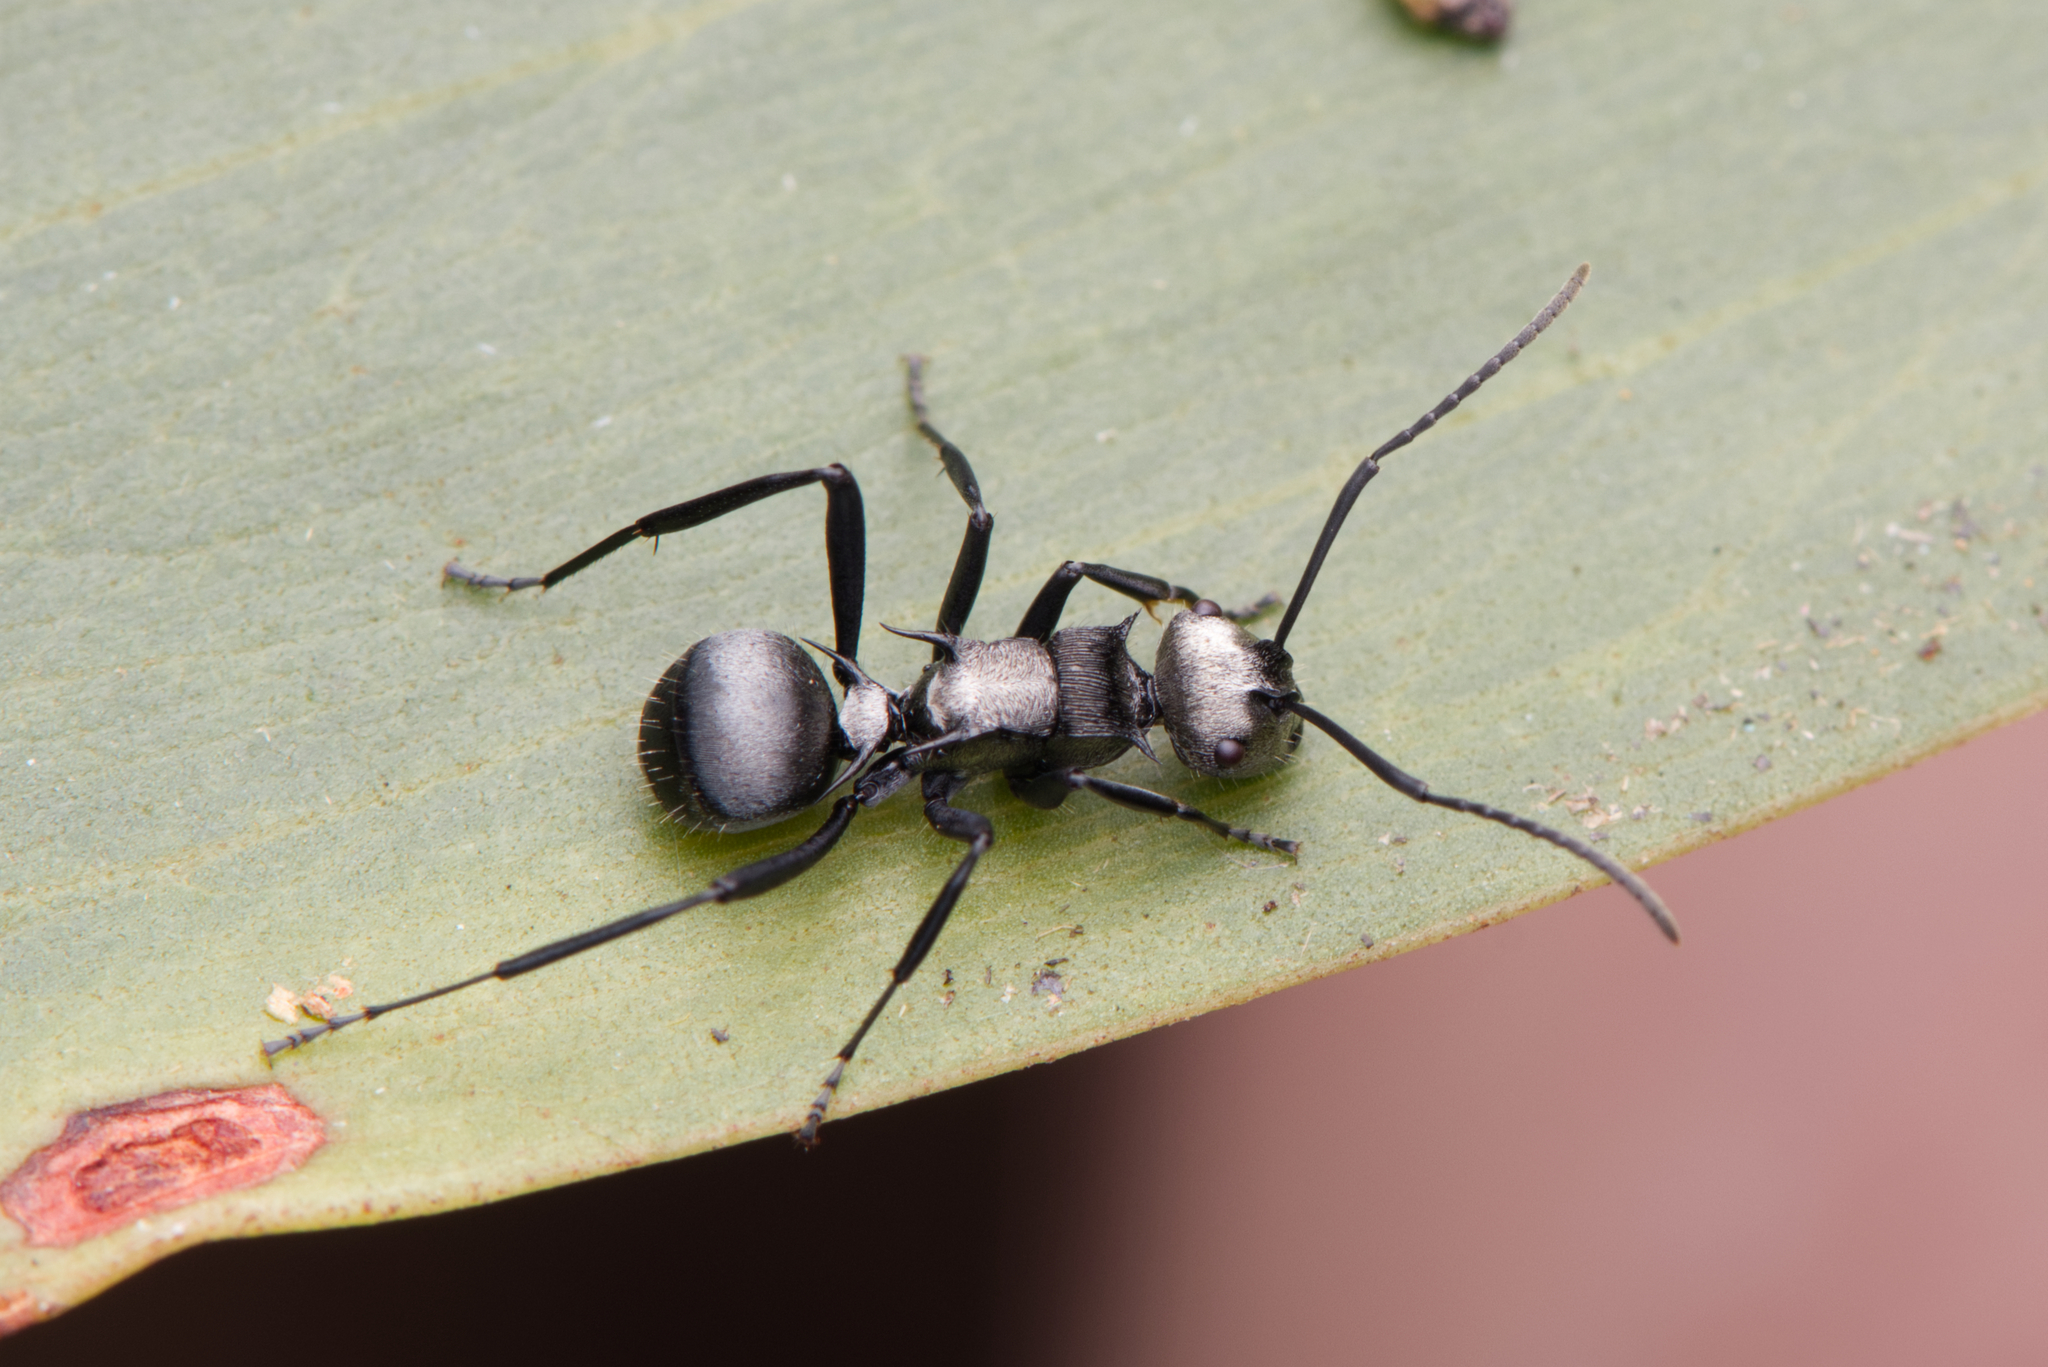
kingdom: Animalia
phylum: Arthropoda
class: Insecta
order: Hymenoptera
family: Formicidae
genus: Polyrhachis
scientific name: Polyrhachis daemeli
